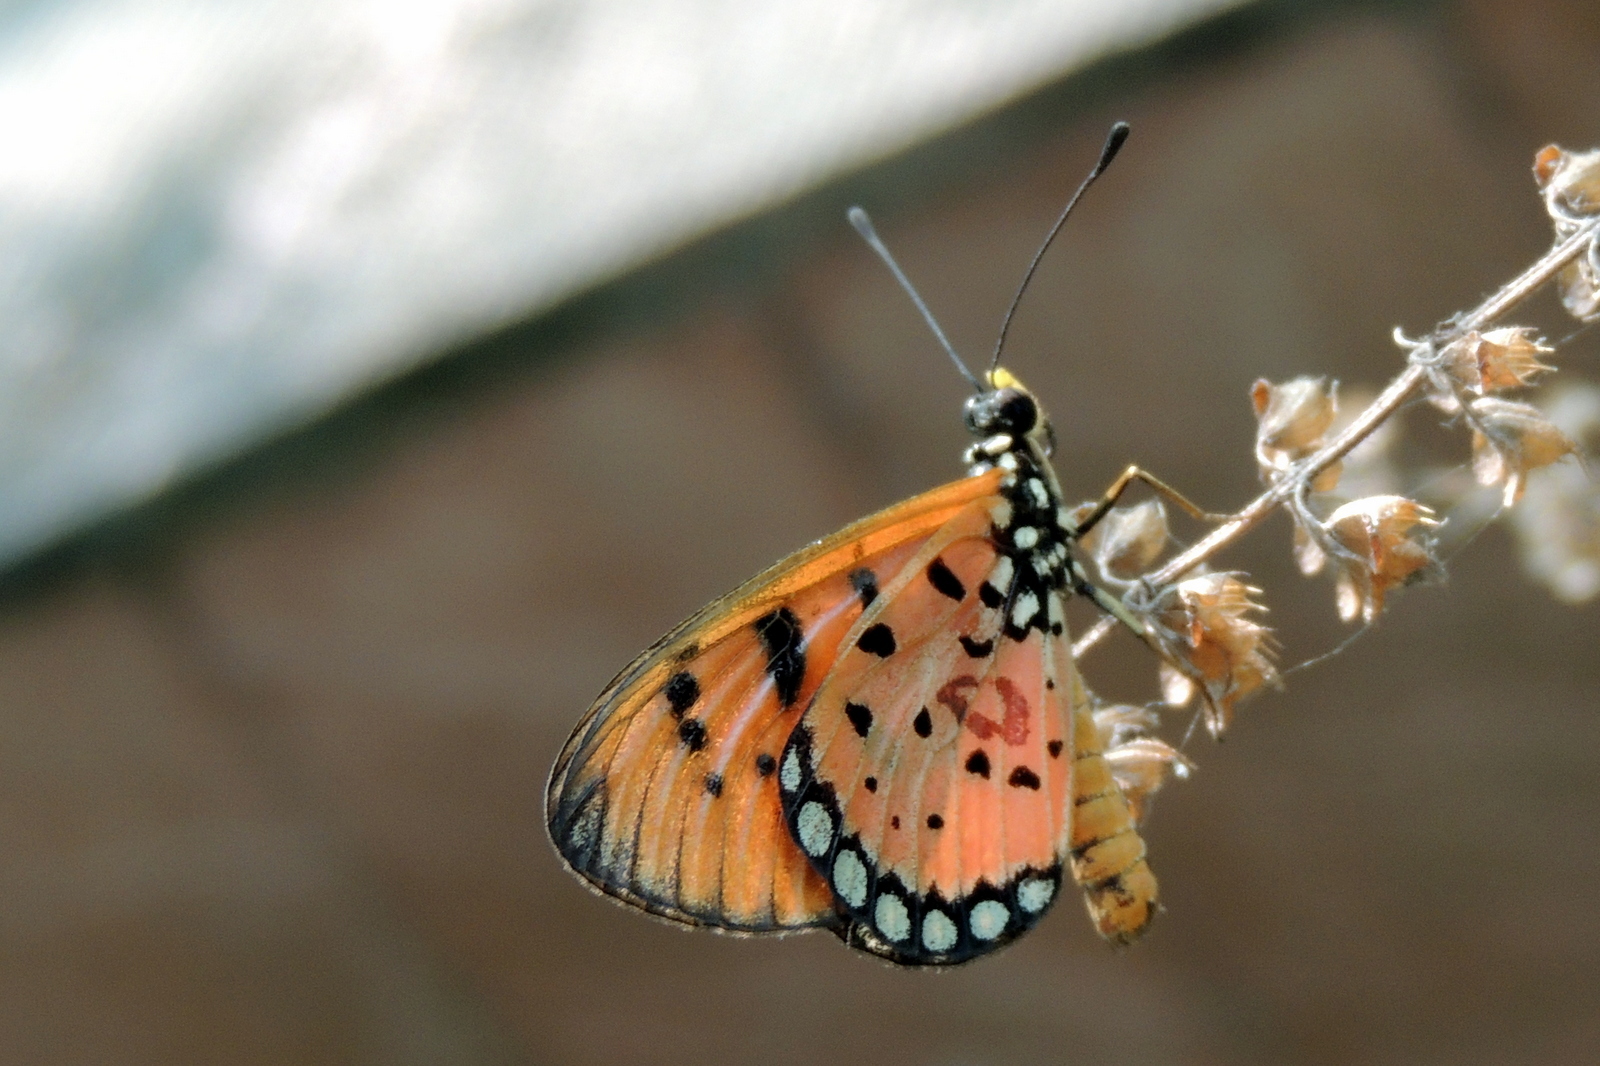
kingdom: Animalia
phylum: Arthropoda
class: Insecta
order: Lepidoptera
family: Nymphalidae
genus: Acraea
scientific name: Acraea terpsicore
